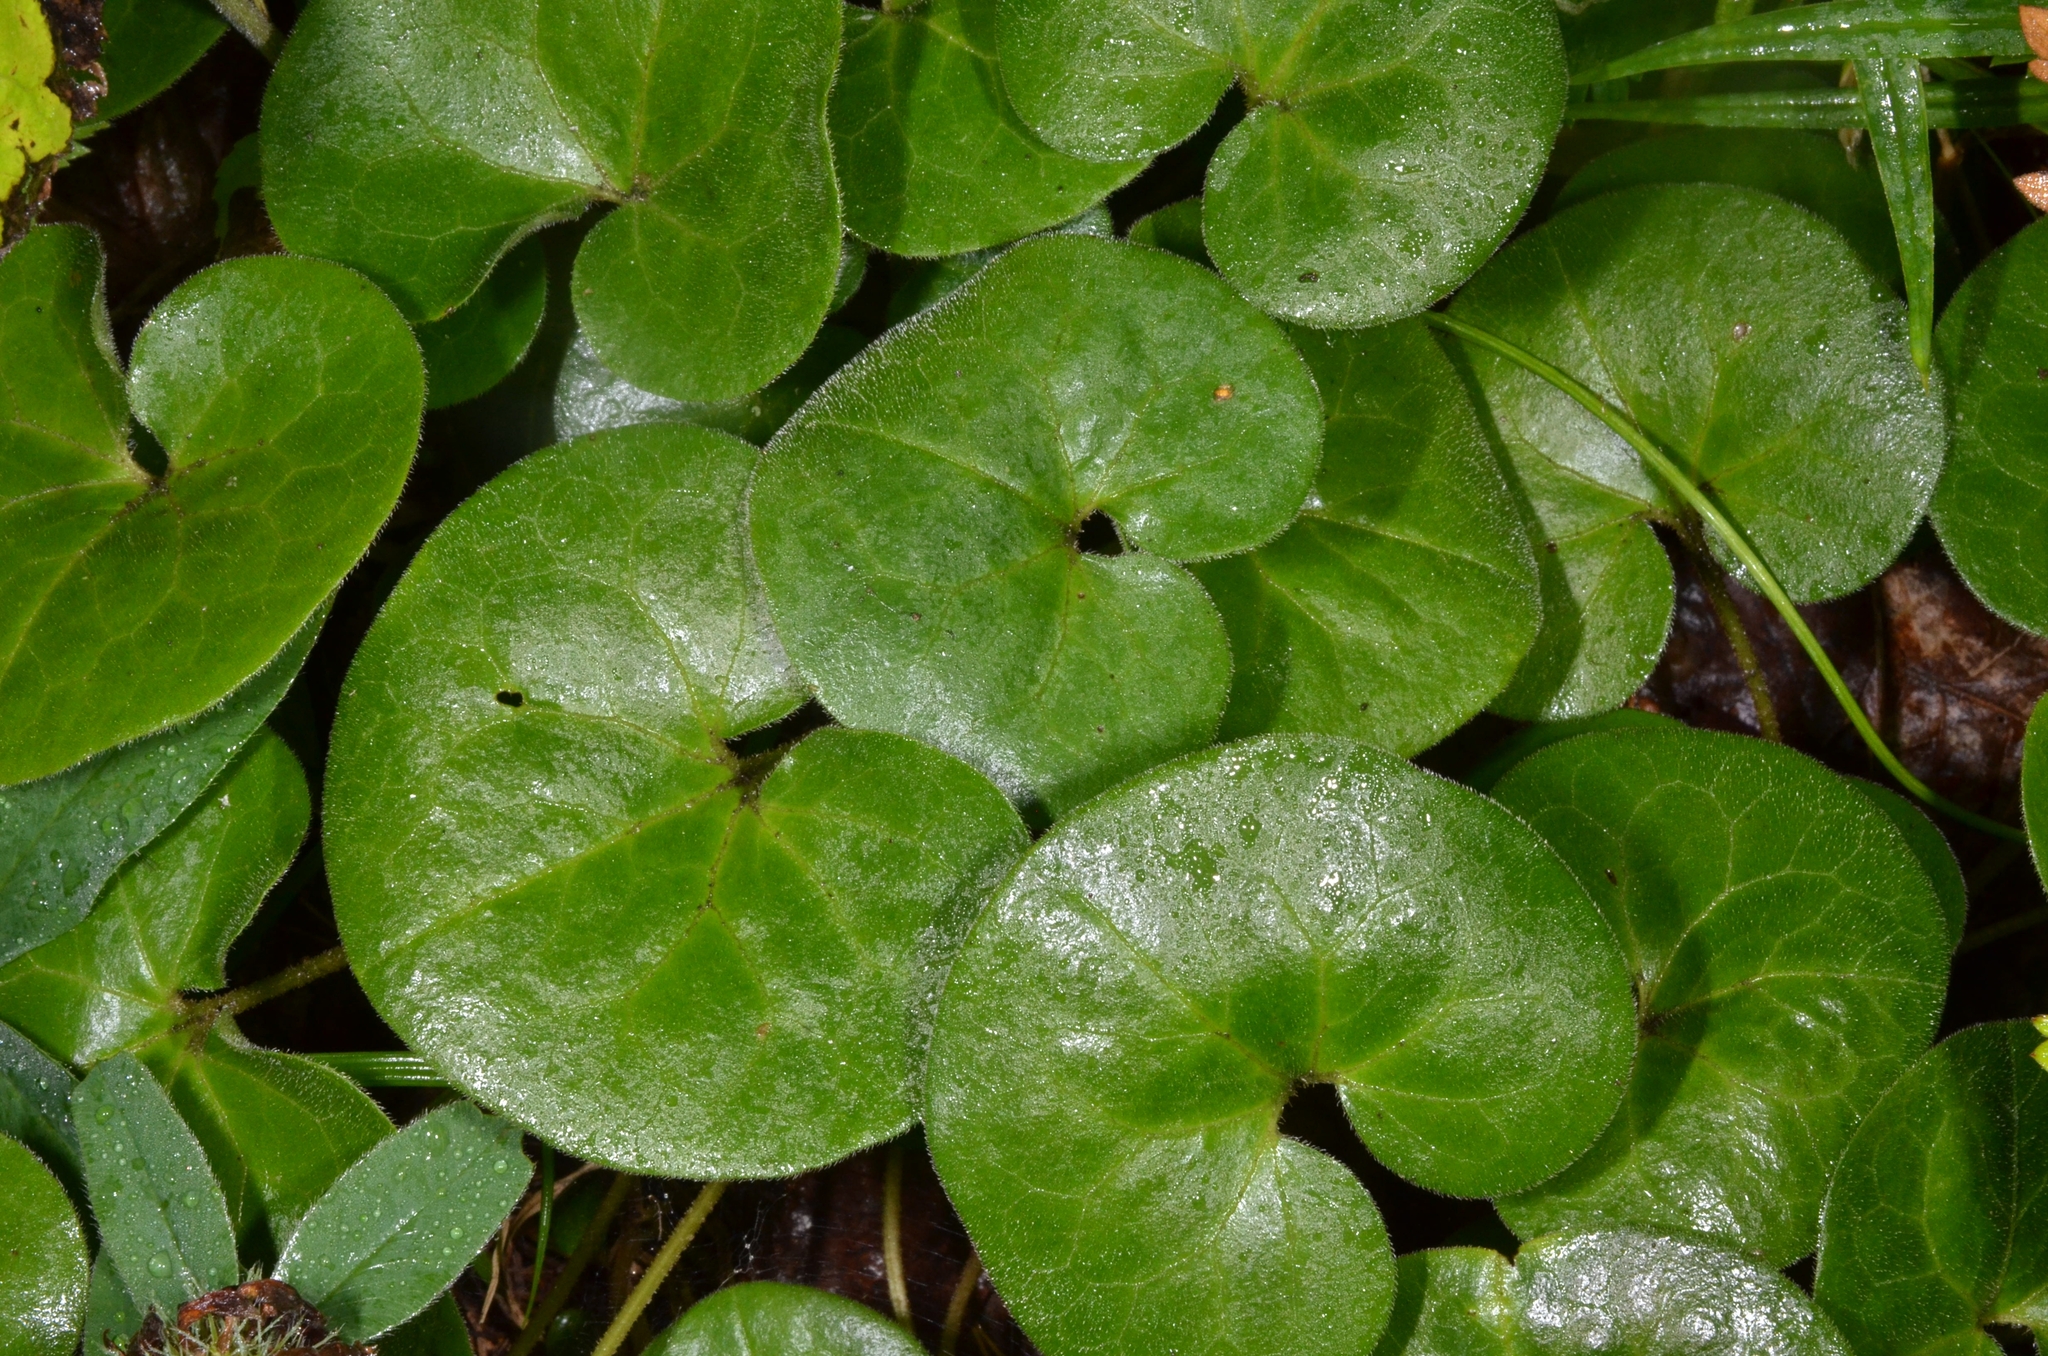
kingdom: Plantae
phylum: Tracheophyta
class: Magnoliopsida
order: Piperales
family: Aristolochiaceae
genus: Asarum
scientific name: Asarum europaeum
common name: Asarabacca
